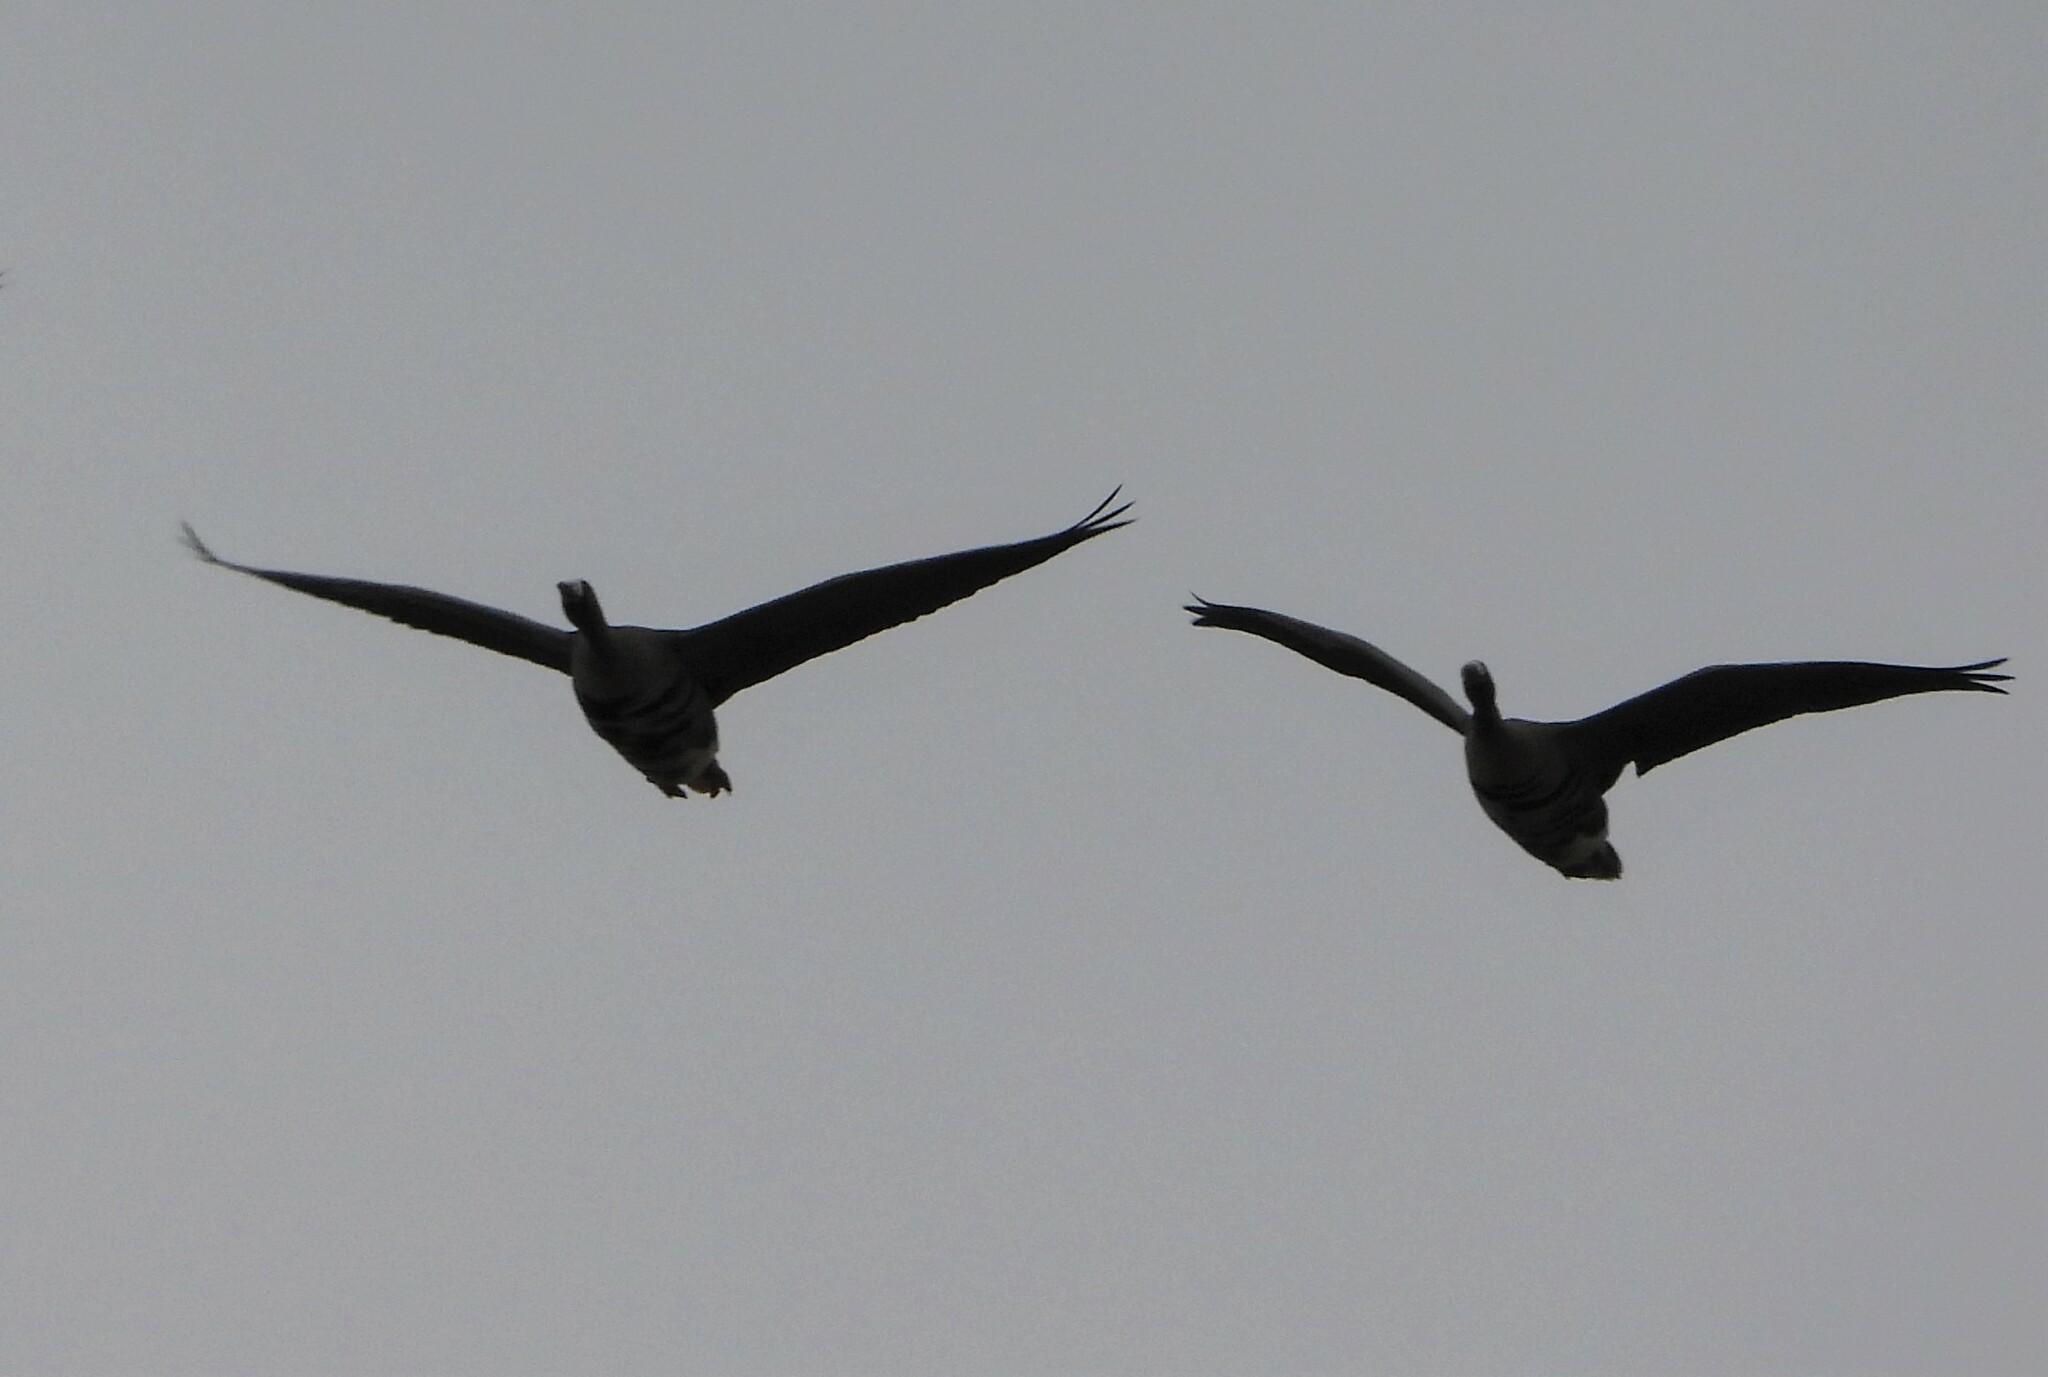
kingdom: Animalia
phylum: Chordata
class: Aves
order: Anseriformes
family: Anatidae
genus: Anser
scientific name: Anser albifrons
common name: Greater white-fronted goose
